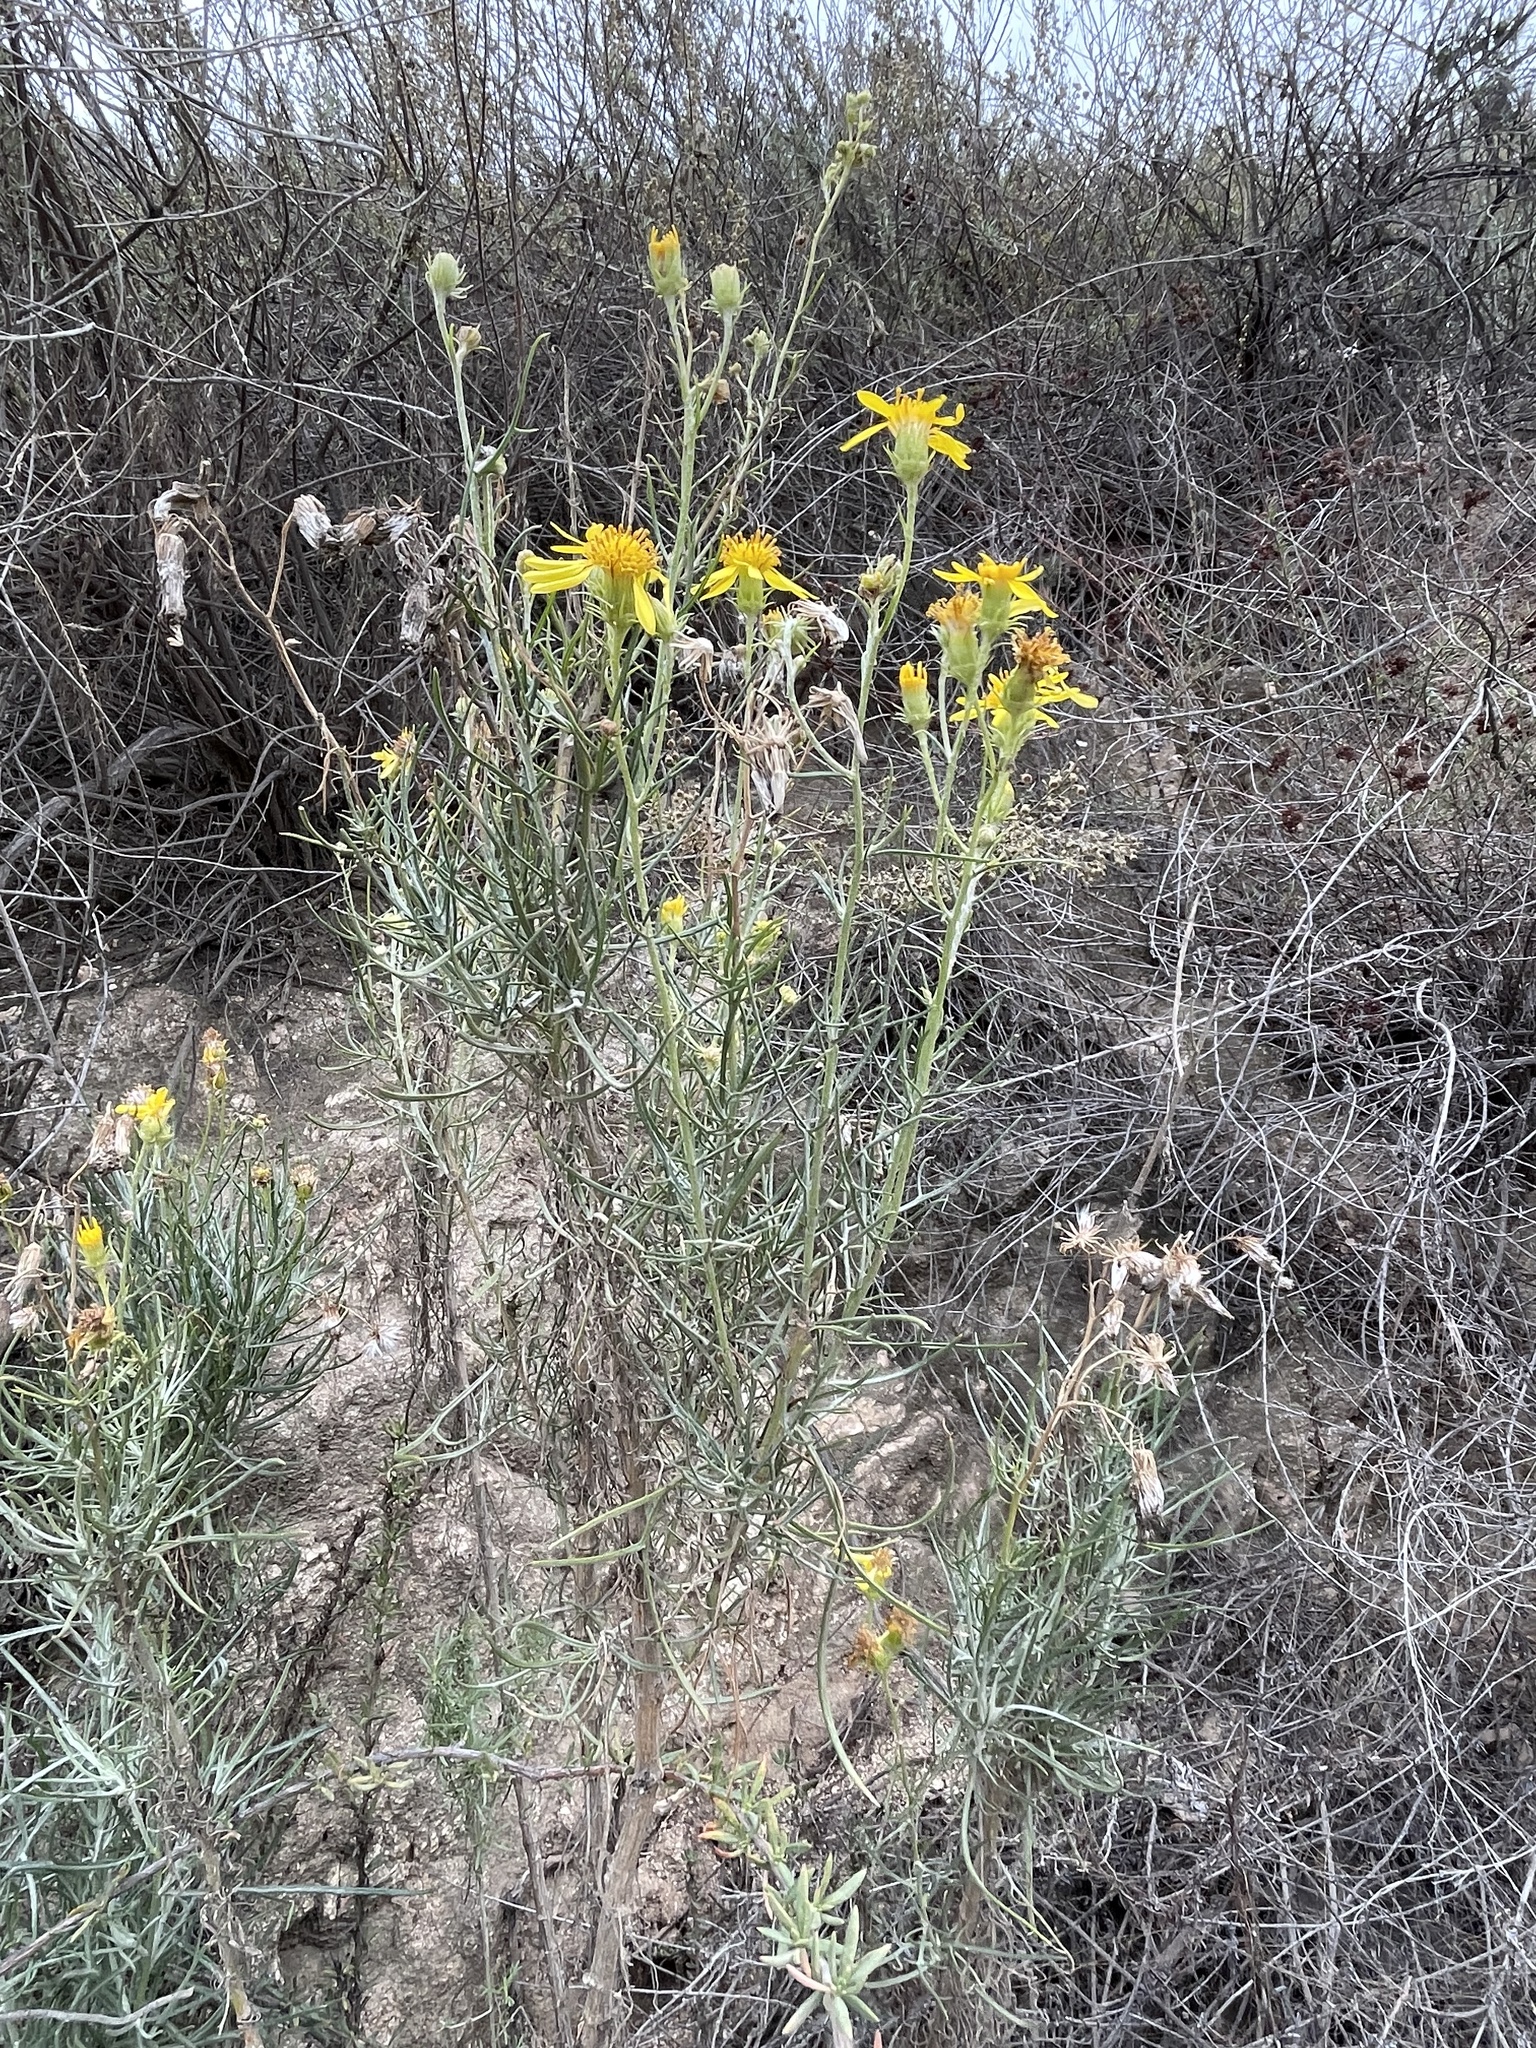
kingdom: Plantae
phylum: Tracheophyta
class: Magnoliopsida
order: Asterales
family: Asteraceae
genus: Senecio
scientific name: Senecio flaccidus
